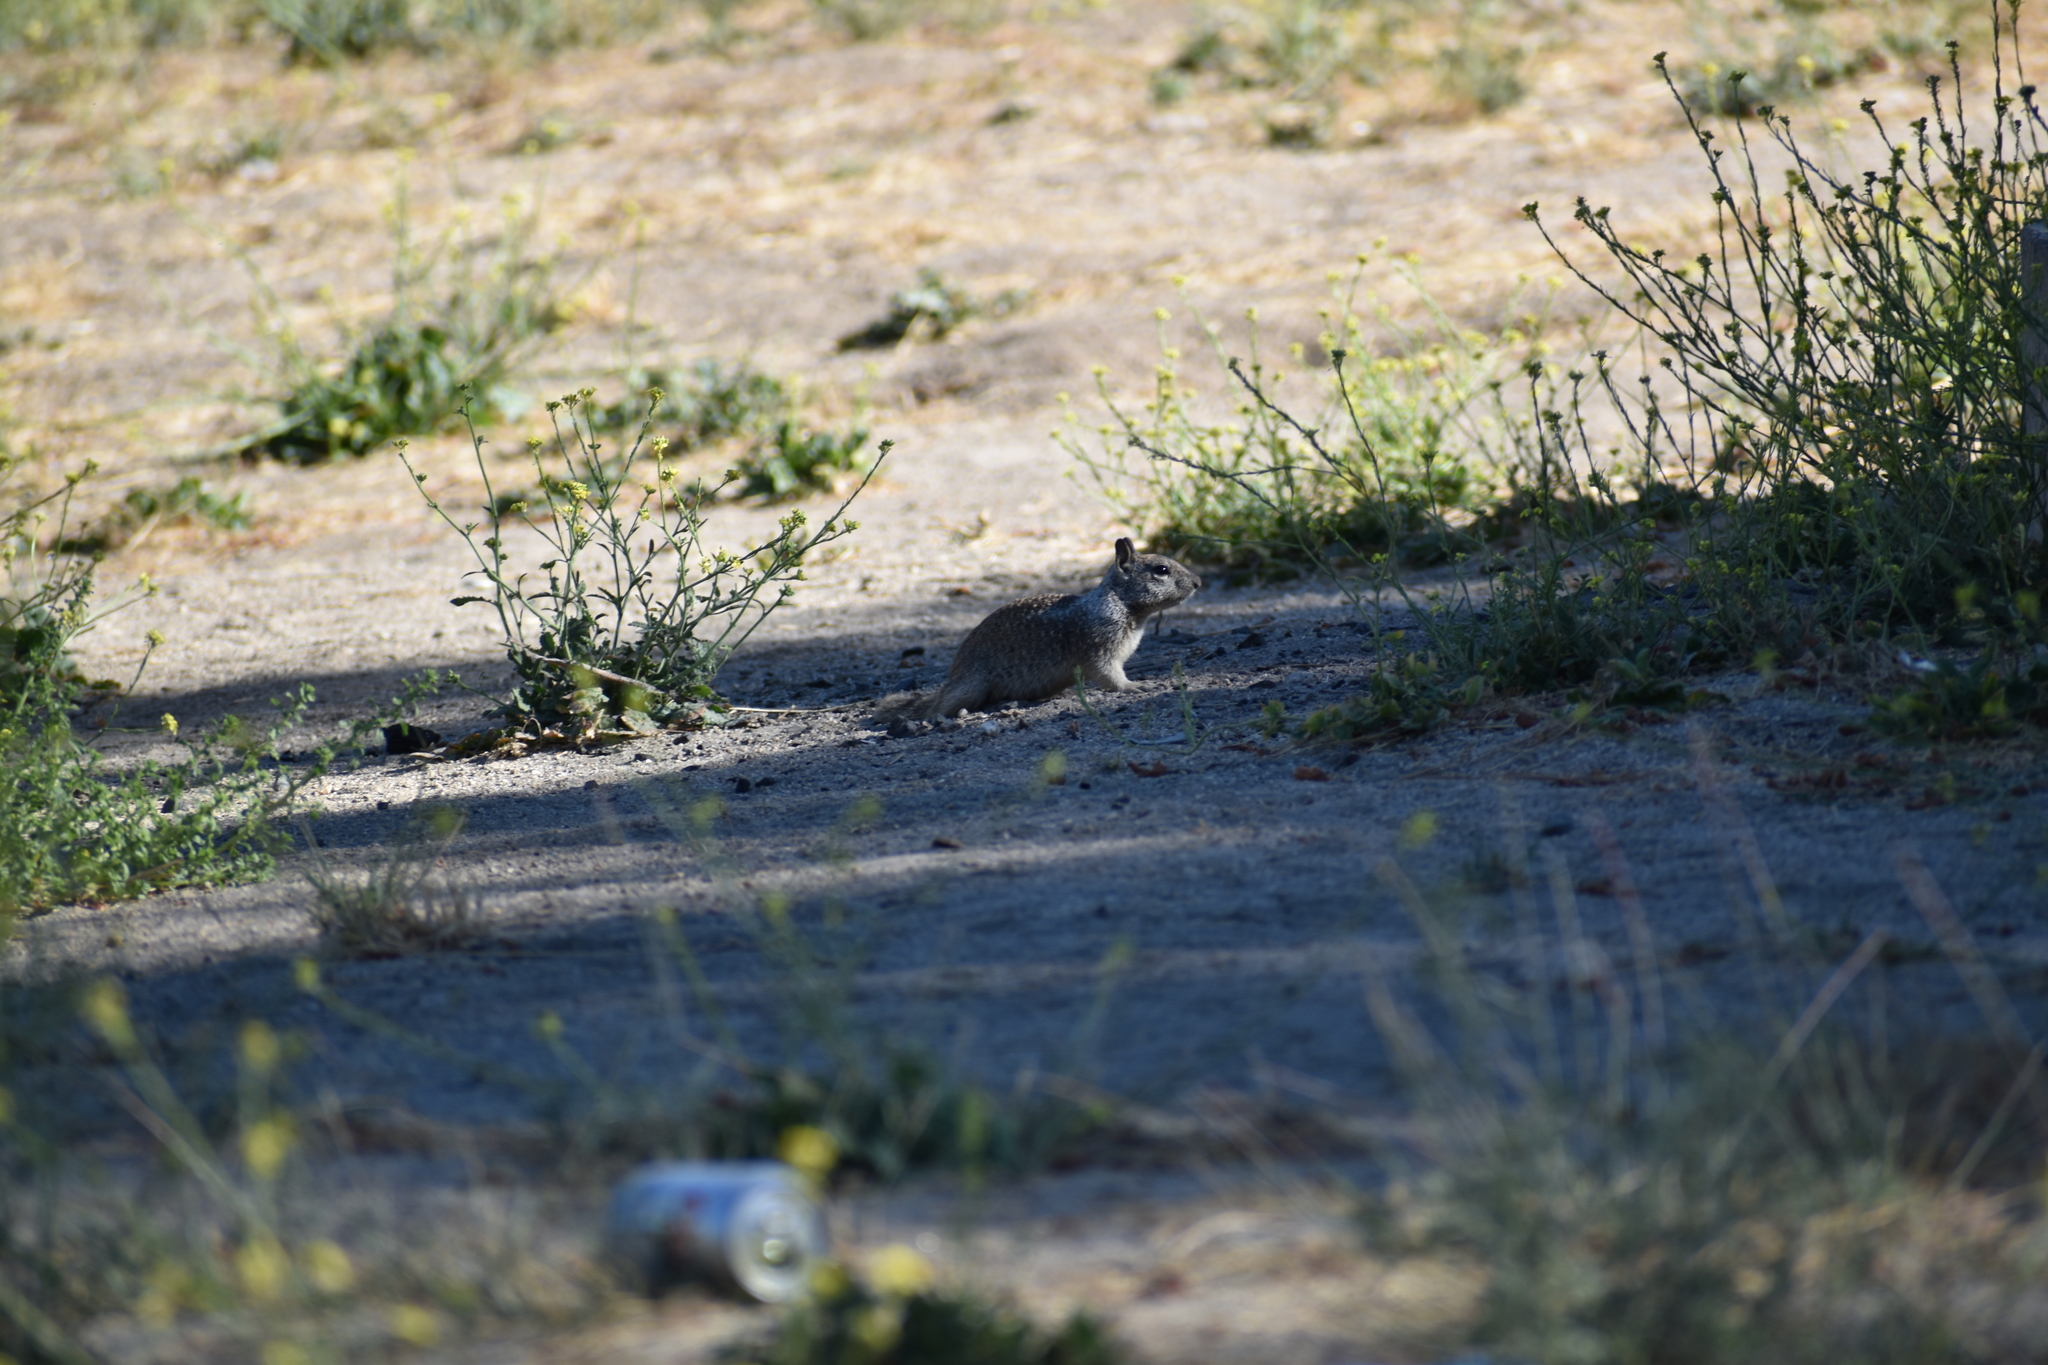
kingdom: Animalia
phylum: Chordata
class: Mammalia
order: Rodentia
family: Sciuridae
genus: Otospermophilus
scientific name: Otospermophilus beecheyi
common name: California ground squirrel
